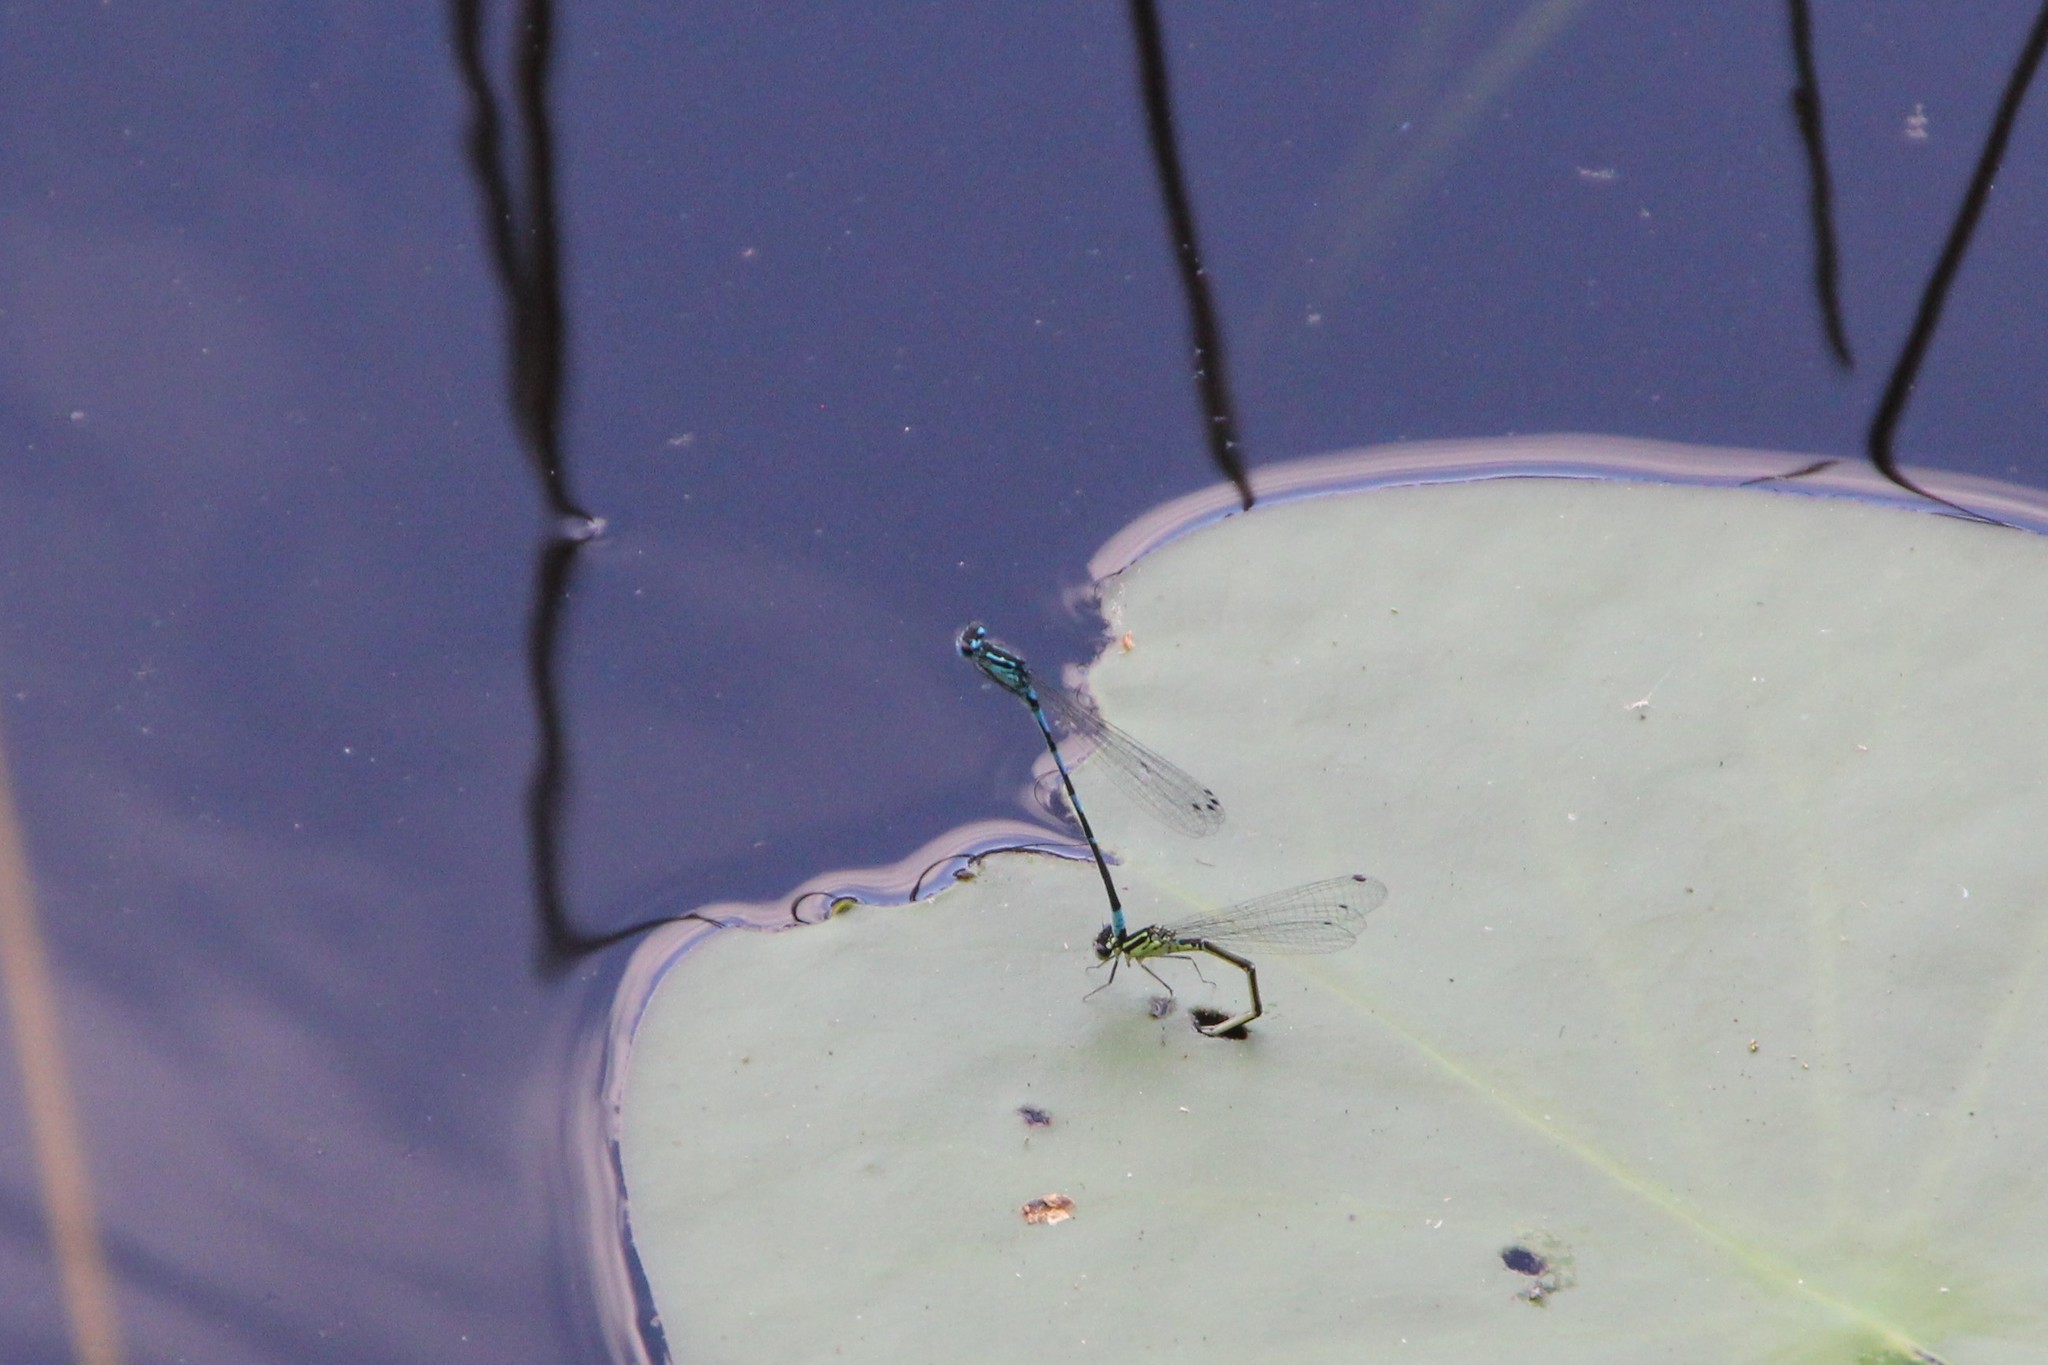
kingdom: Animalia
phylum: Arthropoda
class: Insecta
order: Odonata
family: Coenagrionidae
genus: Coenagrion
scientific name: Coenagrion pulchellum
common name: Variable bluet
